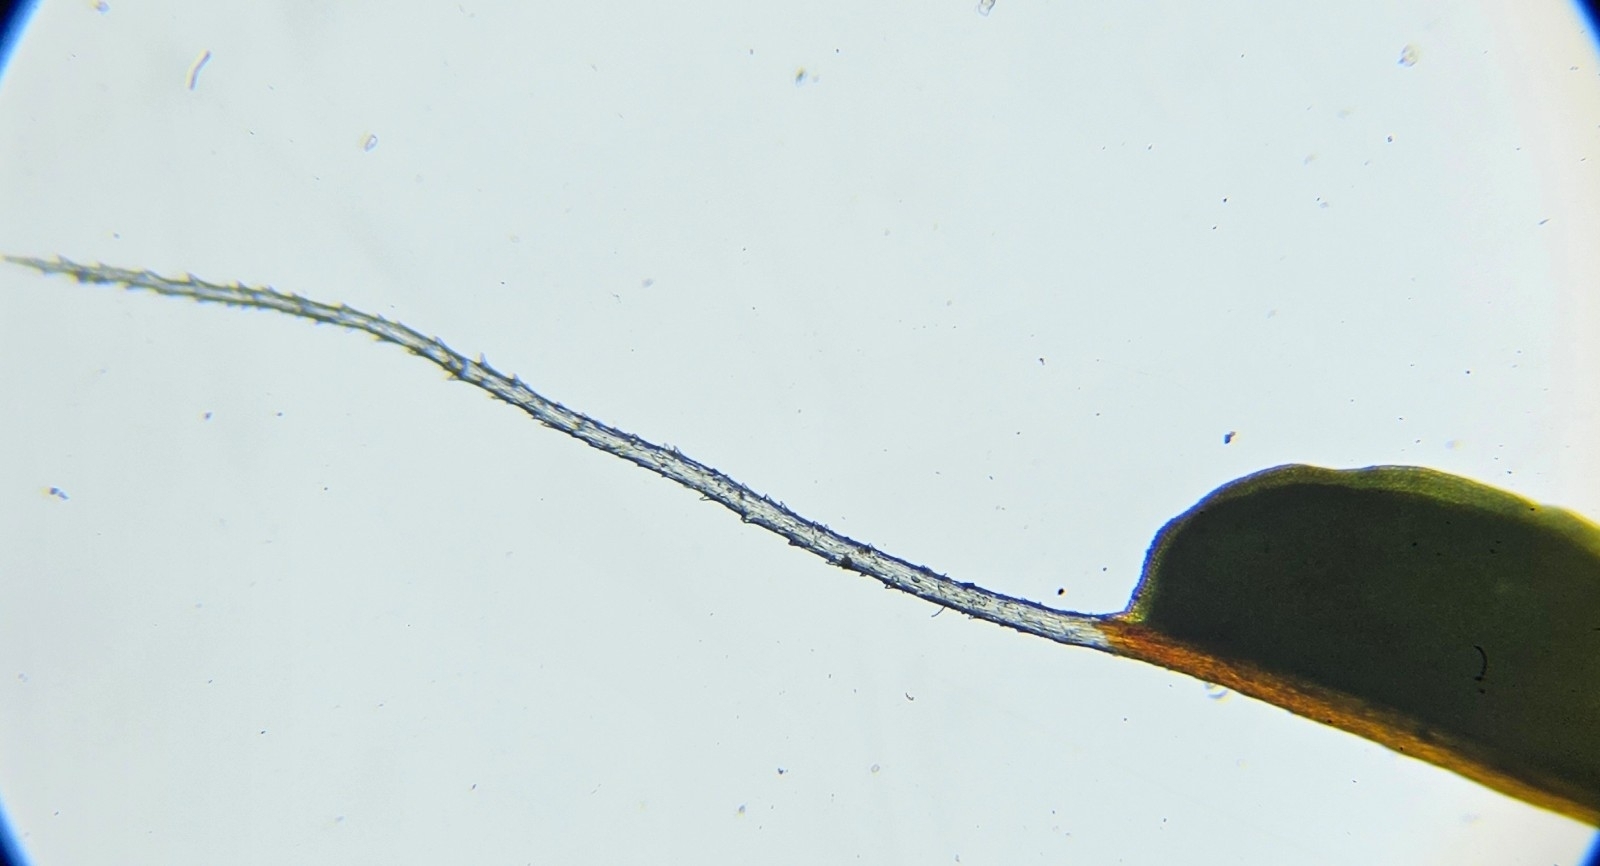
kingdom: Plantae
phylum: Bryophyta
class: Bryopsida
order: Pottiales
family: Pottiaceae
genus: Syntrichia
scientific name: Syntrichia montana
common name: Intermediate screw-moss
